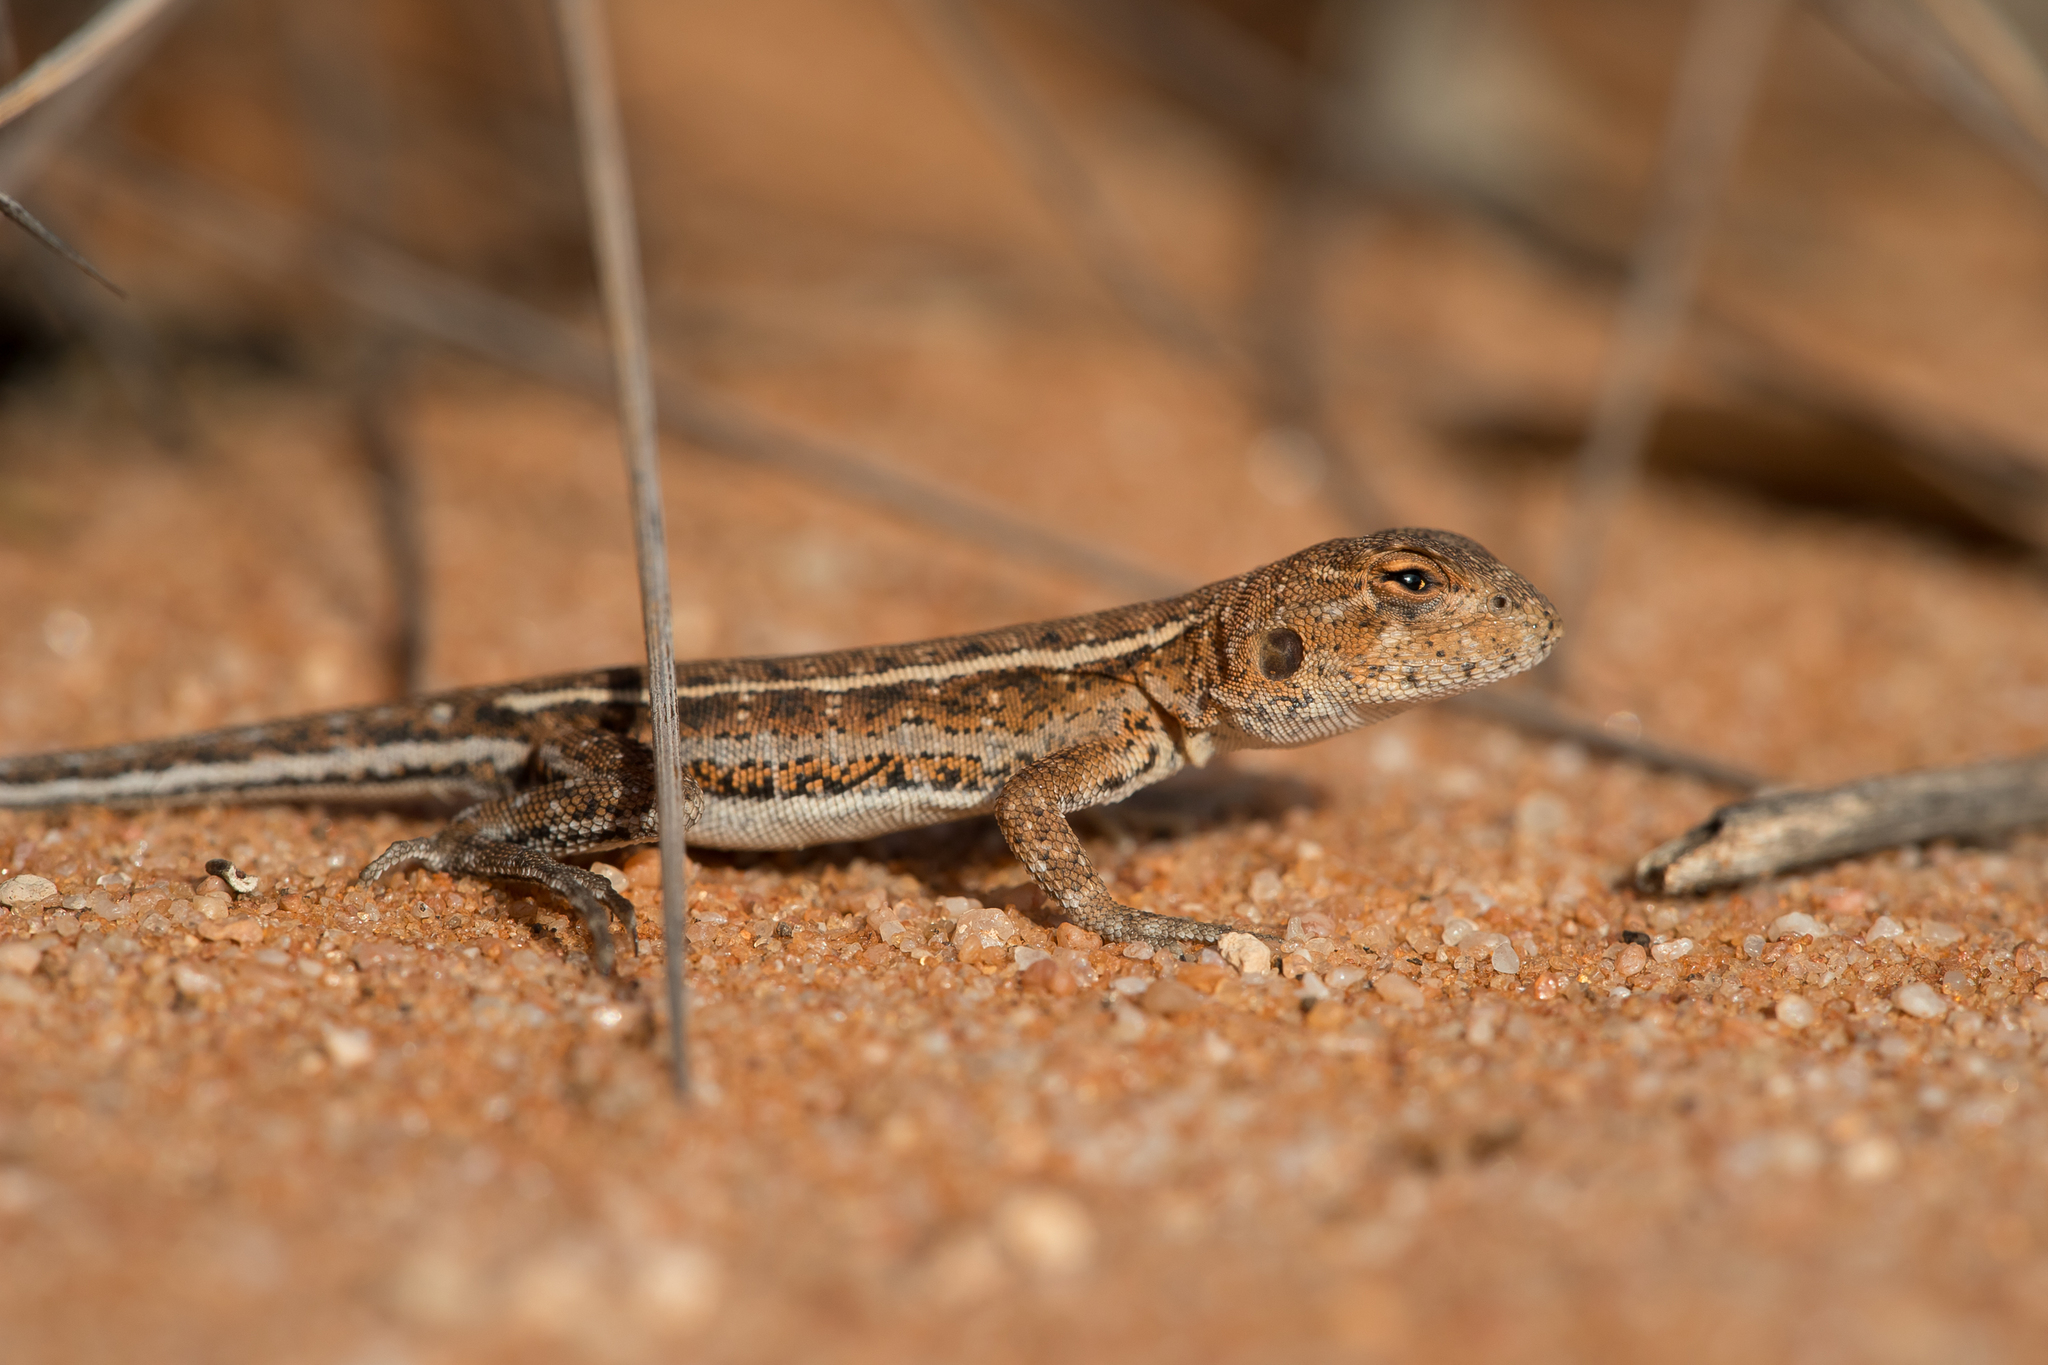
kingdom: Animalia
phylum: Chordata
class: Squamata
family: Agamidae
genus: Ctenophorus
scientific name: Ctenophorus spinodomus
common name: Eastern mallee dragon
